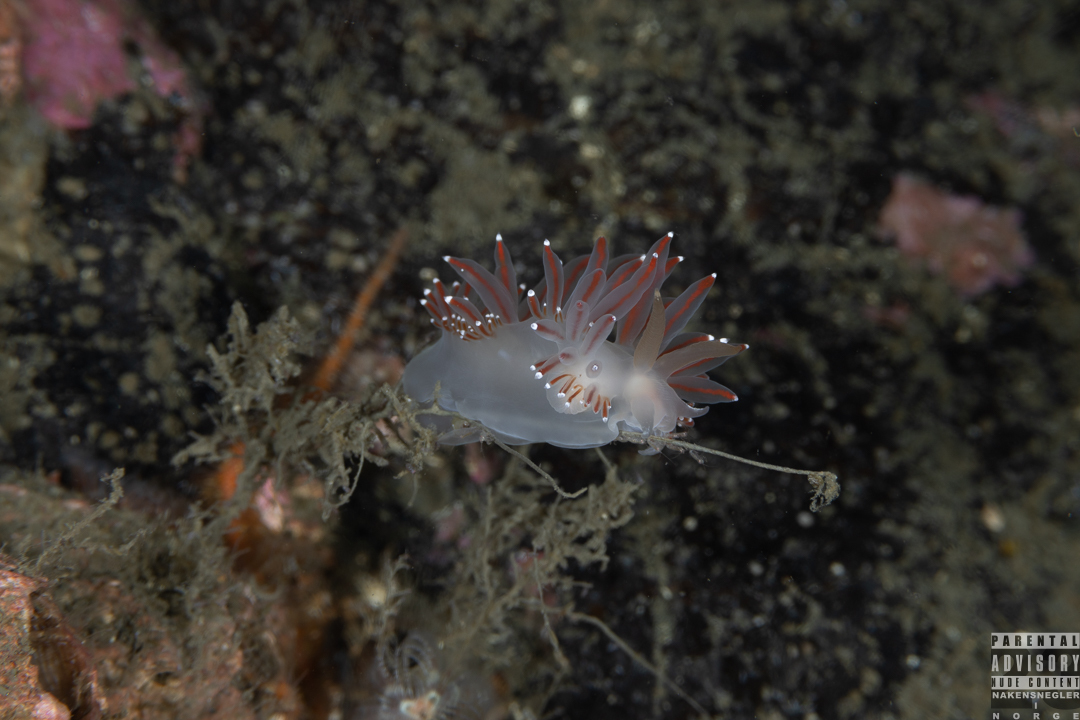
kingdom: Animalia
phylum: Mollusca
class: Gastropoda
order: Nudibranchia
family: Coryphellidae
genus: Coryphella
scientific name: Coryphella browni
